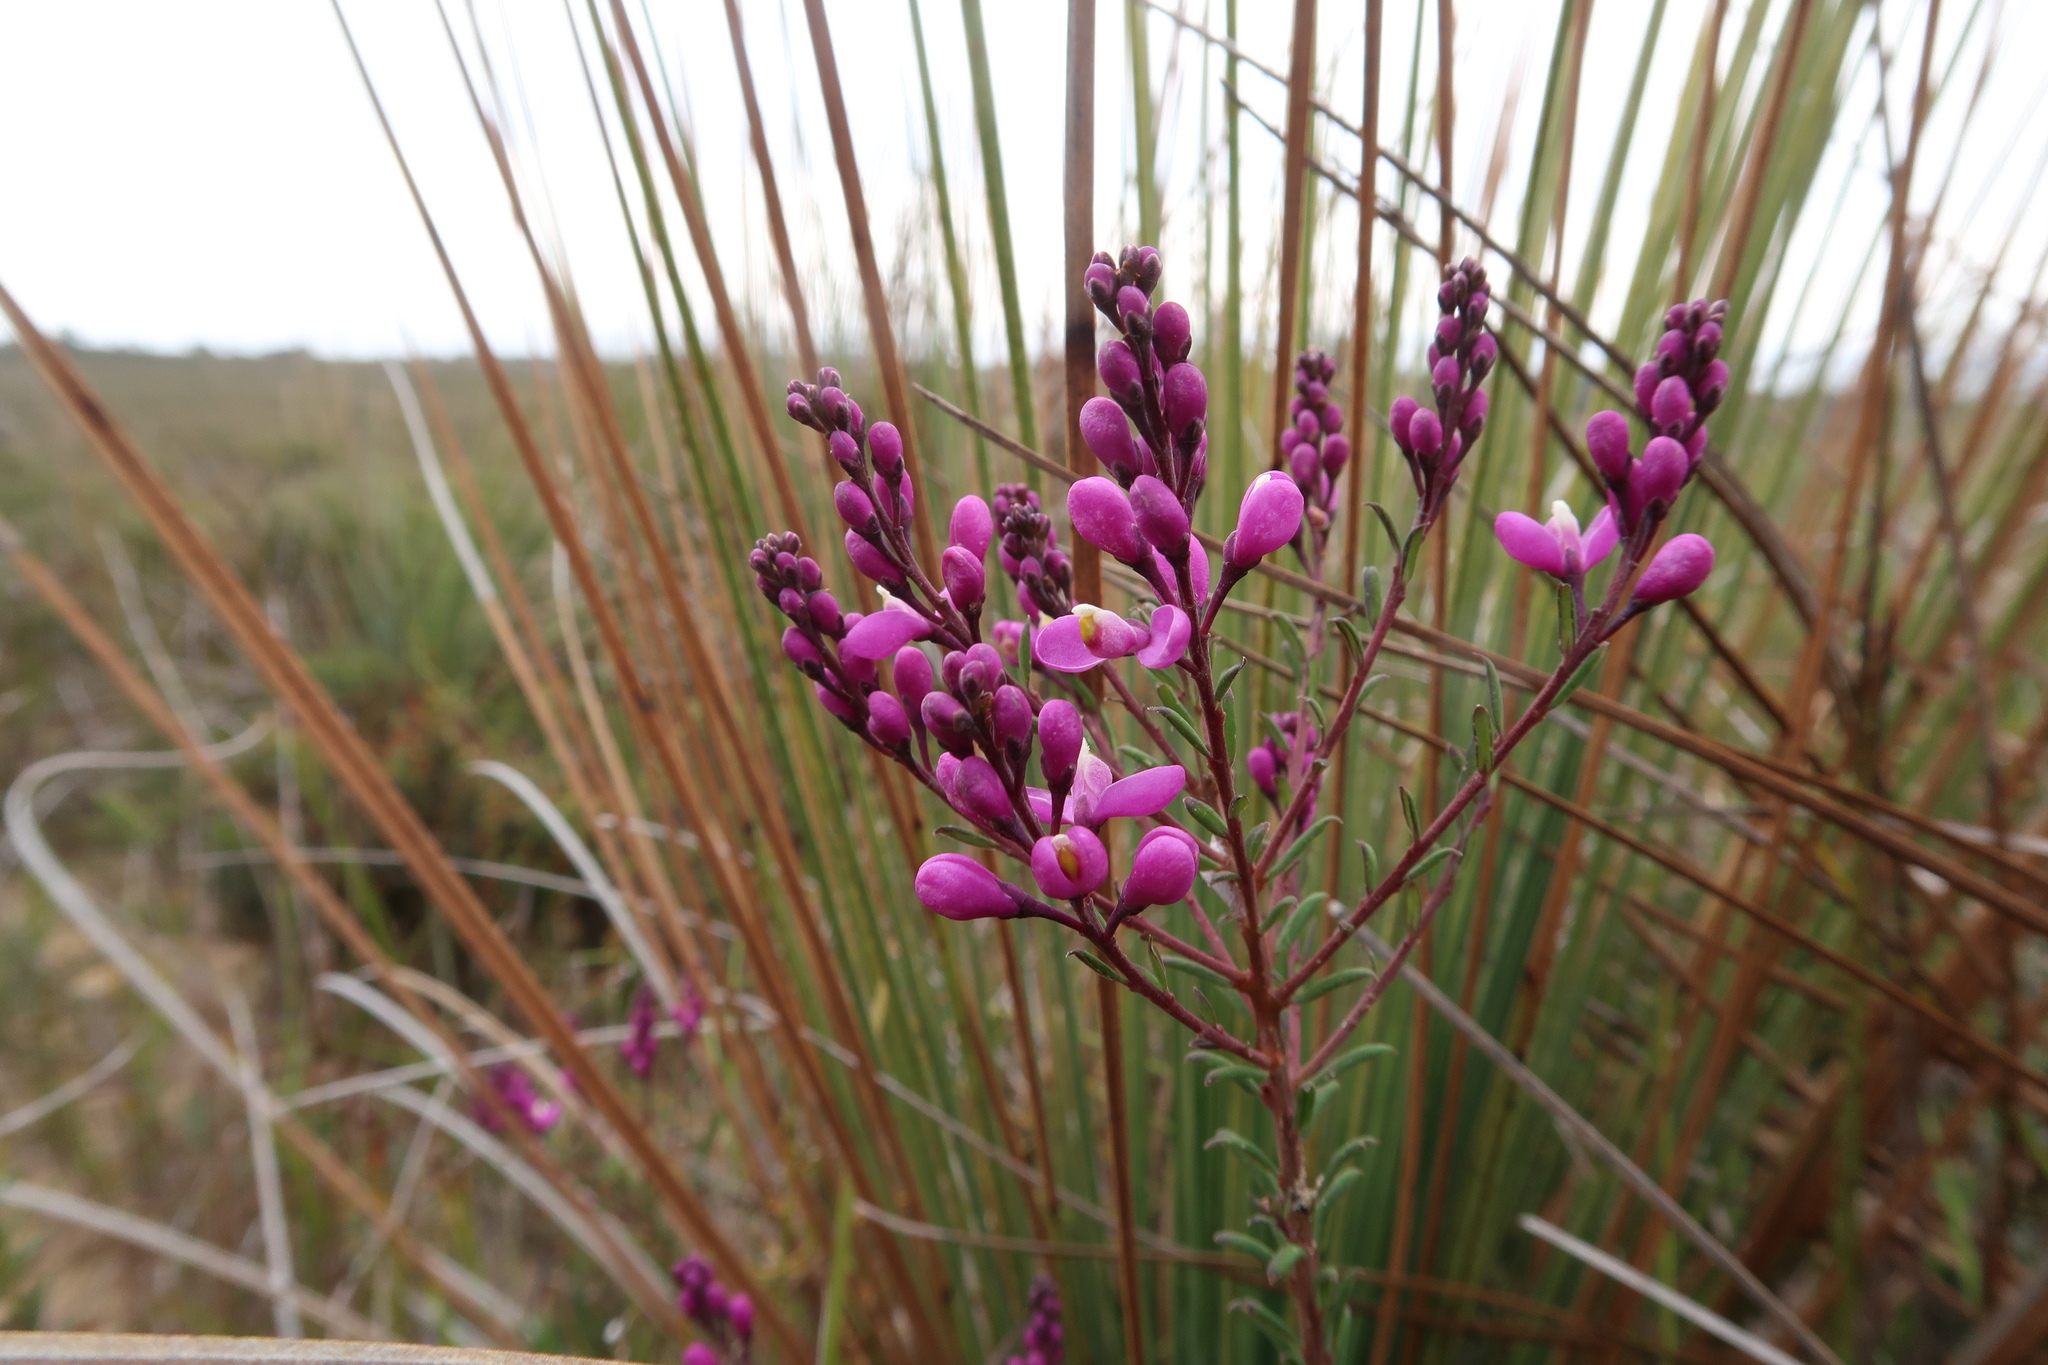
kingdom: Plantae
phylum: Tracheophyta
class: Magnoliopsida
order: Fabales
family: Polygalaceae
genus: Comesperma
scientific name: Comesperma ericinum
